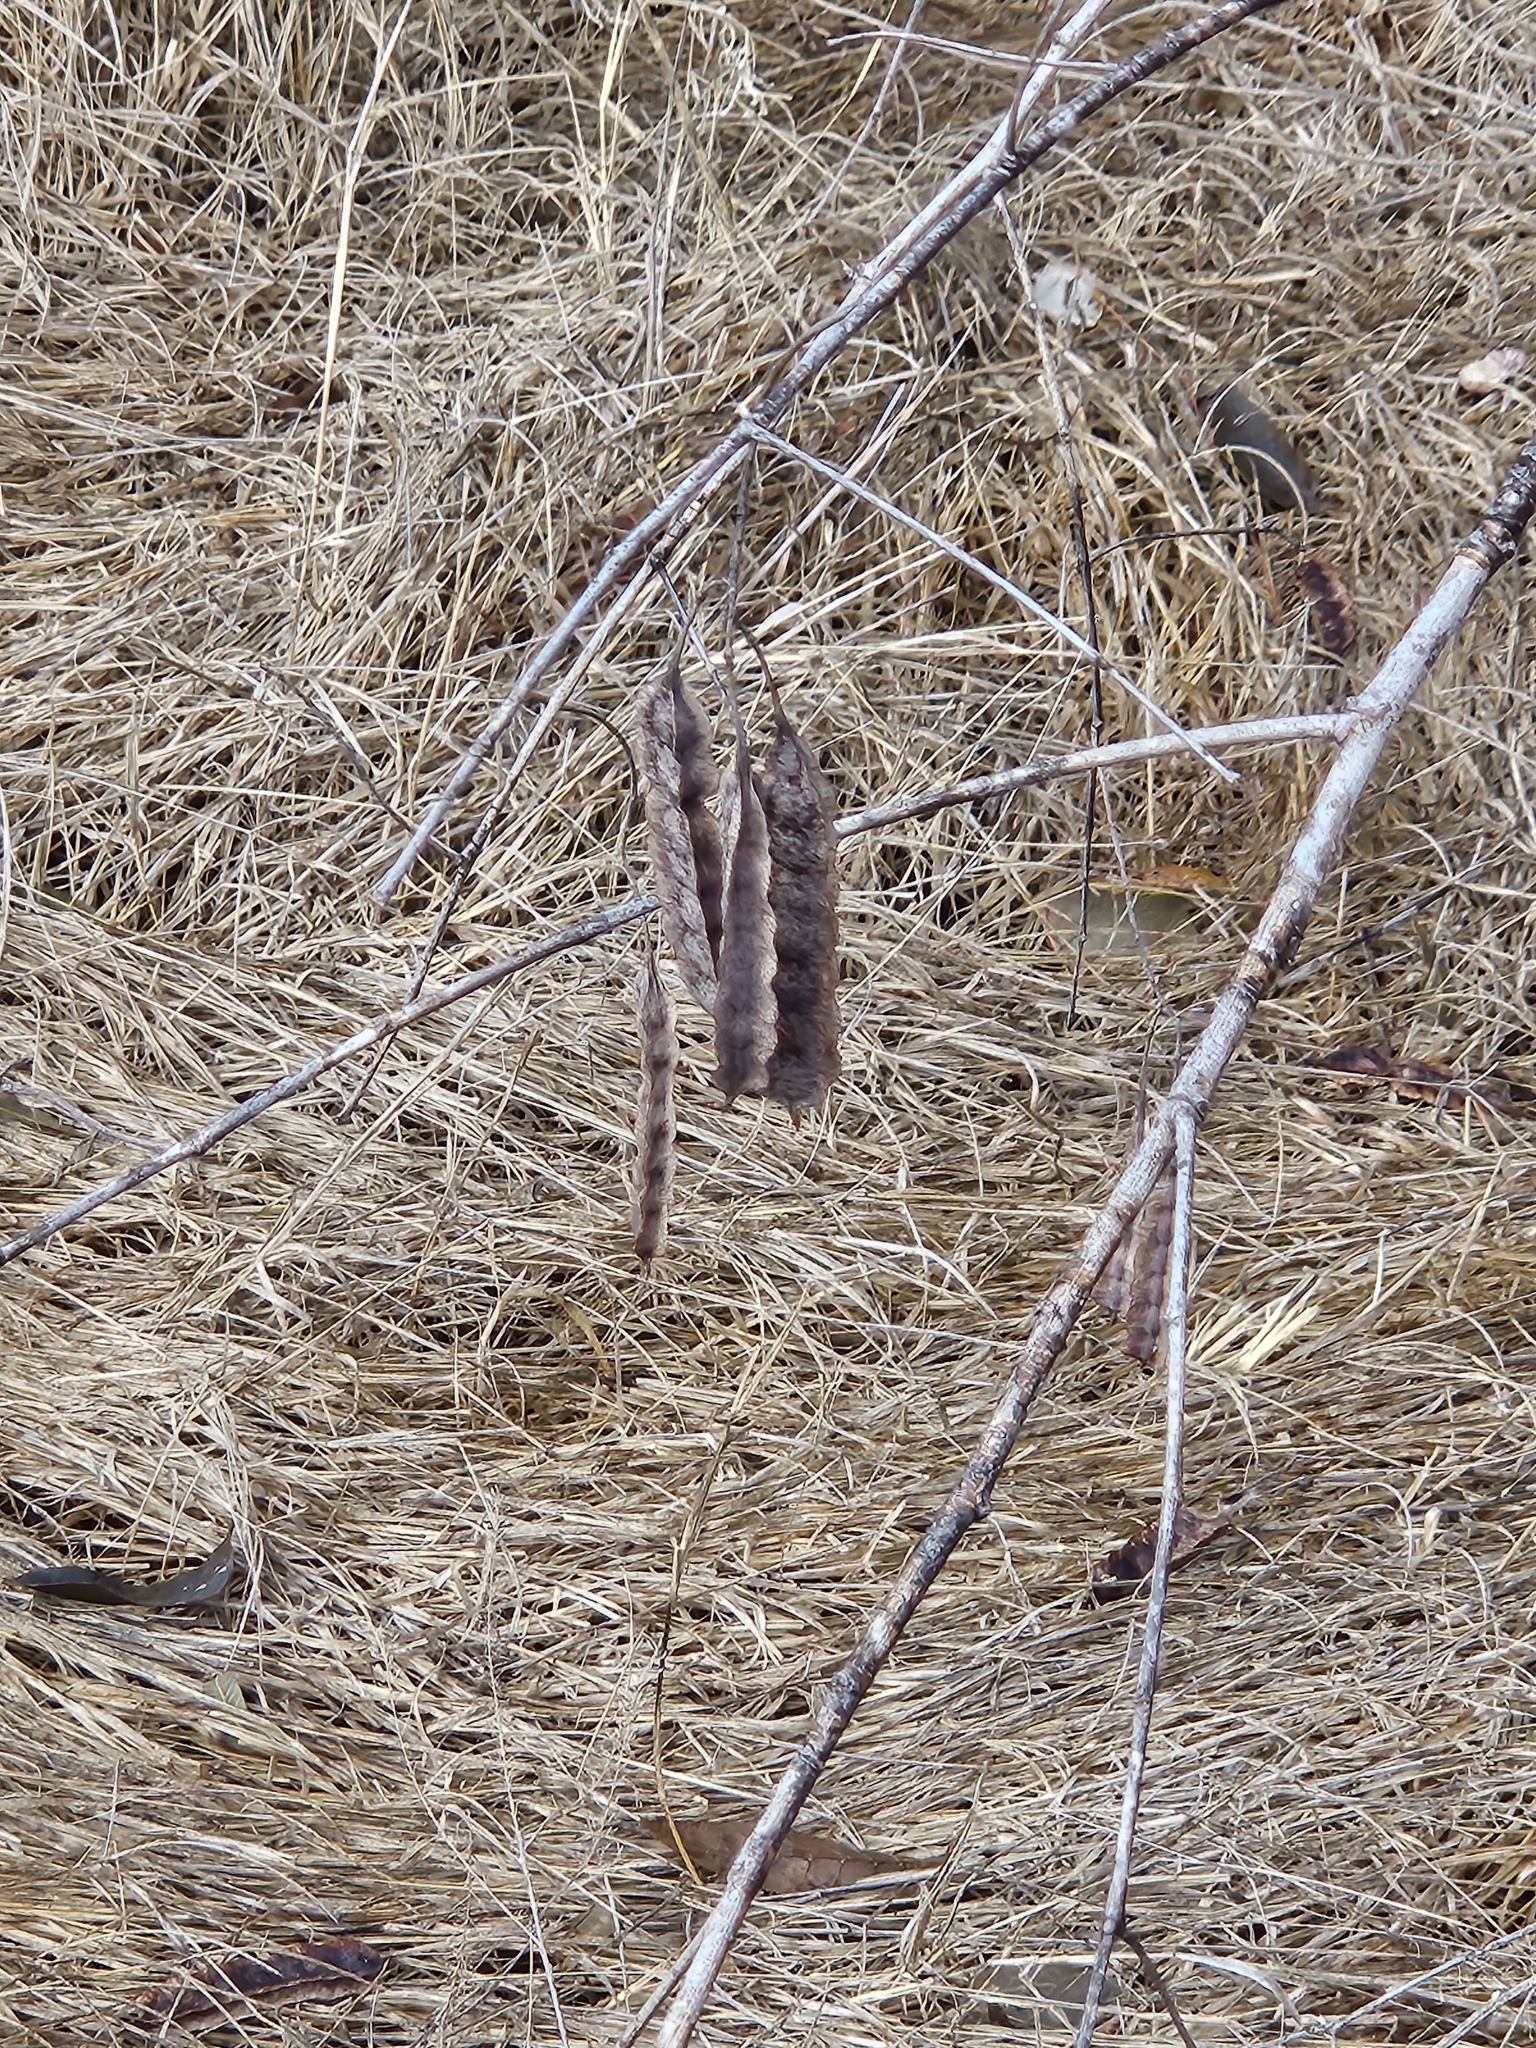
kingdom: Plantae
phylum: Tracheophyta
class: Magnoliopsida
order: Fabales
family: Fabaceae
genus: Sesbania
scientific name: Sesbania drummondii
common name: Poison-bean
